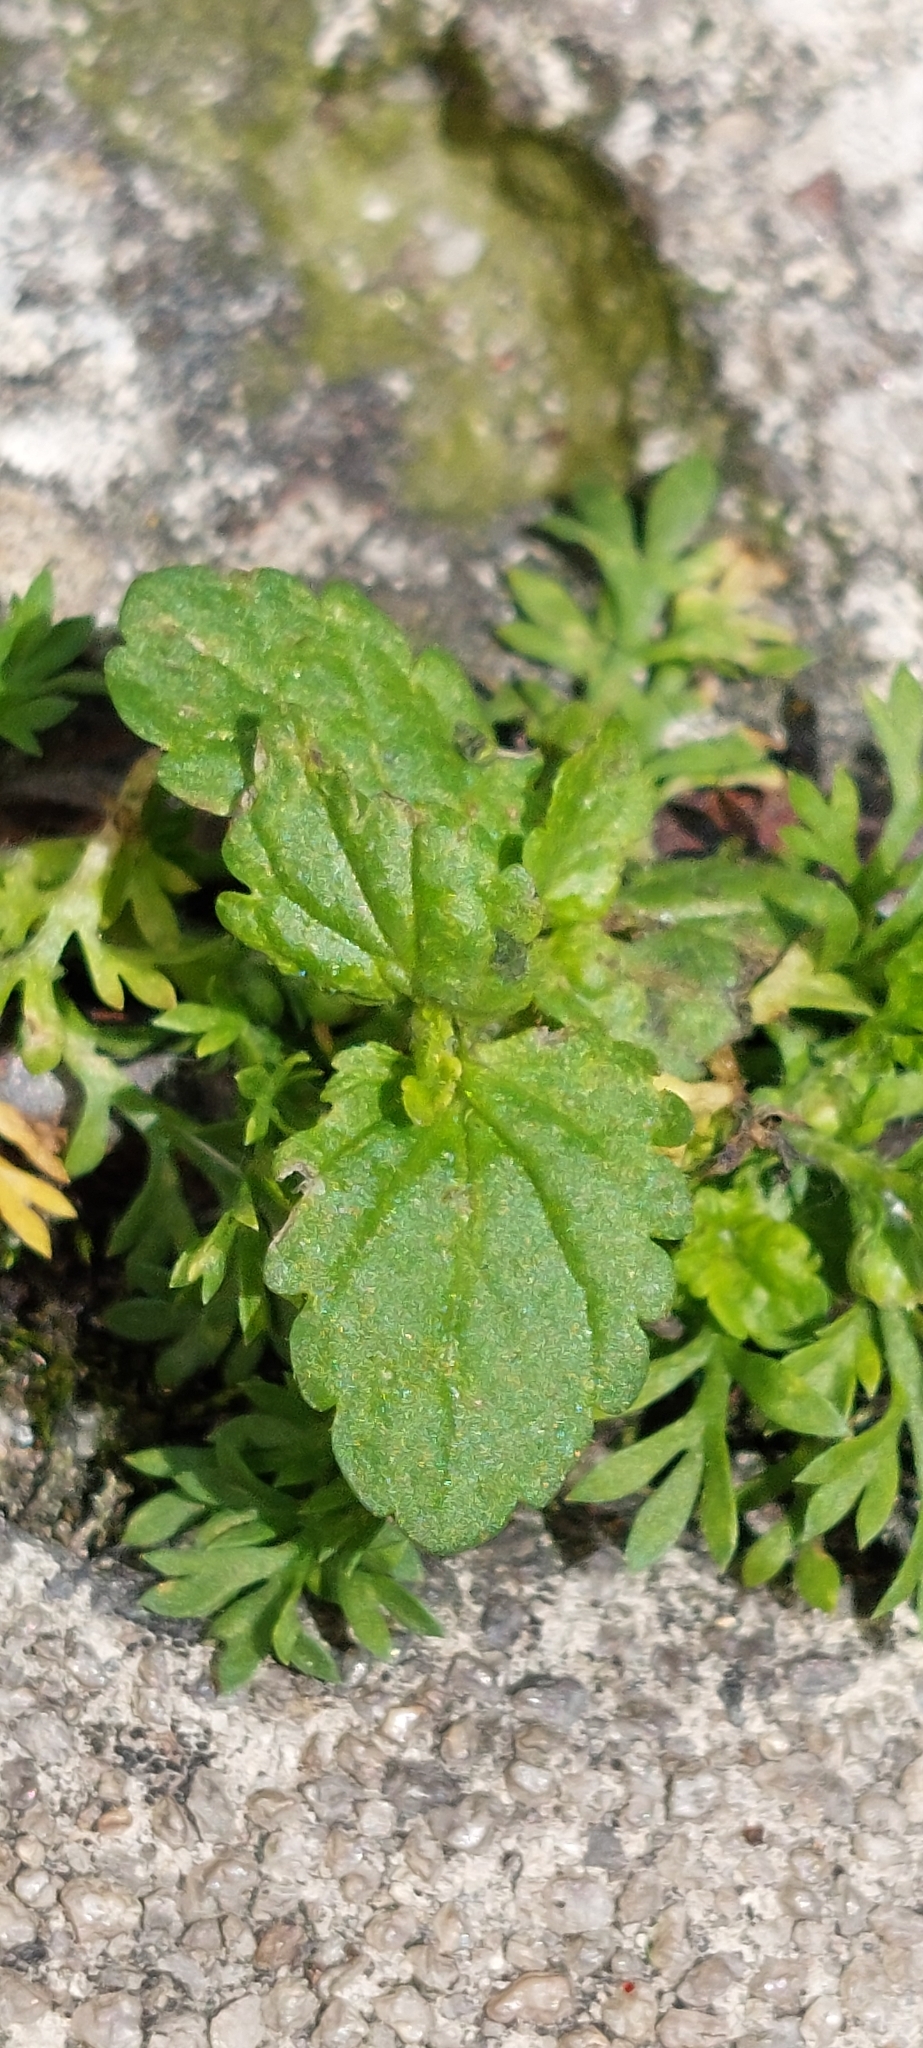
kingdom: Plantae
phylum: Tracheophyta
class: Magnoliopsida
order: Lamiales
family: Plantaginaceae
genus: Veronica
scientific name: Veronica javanica
